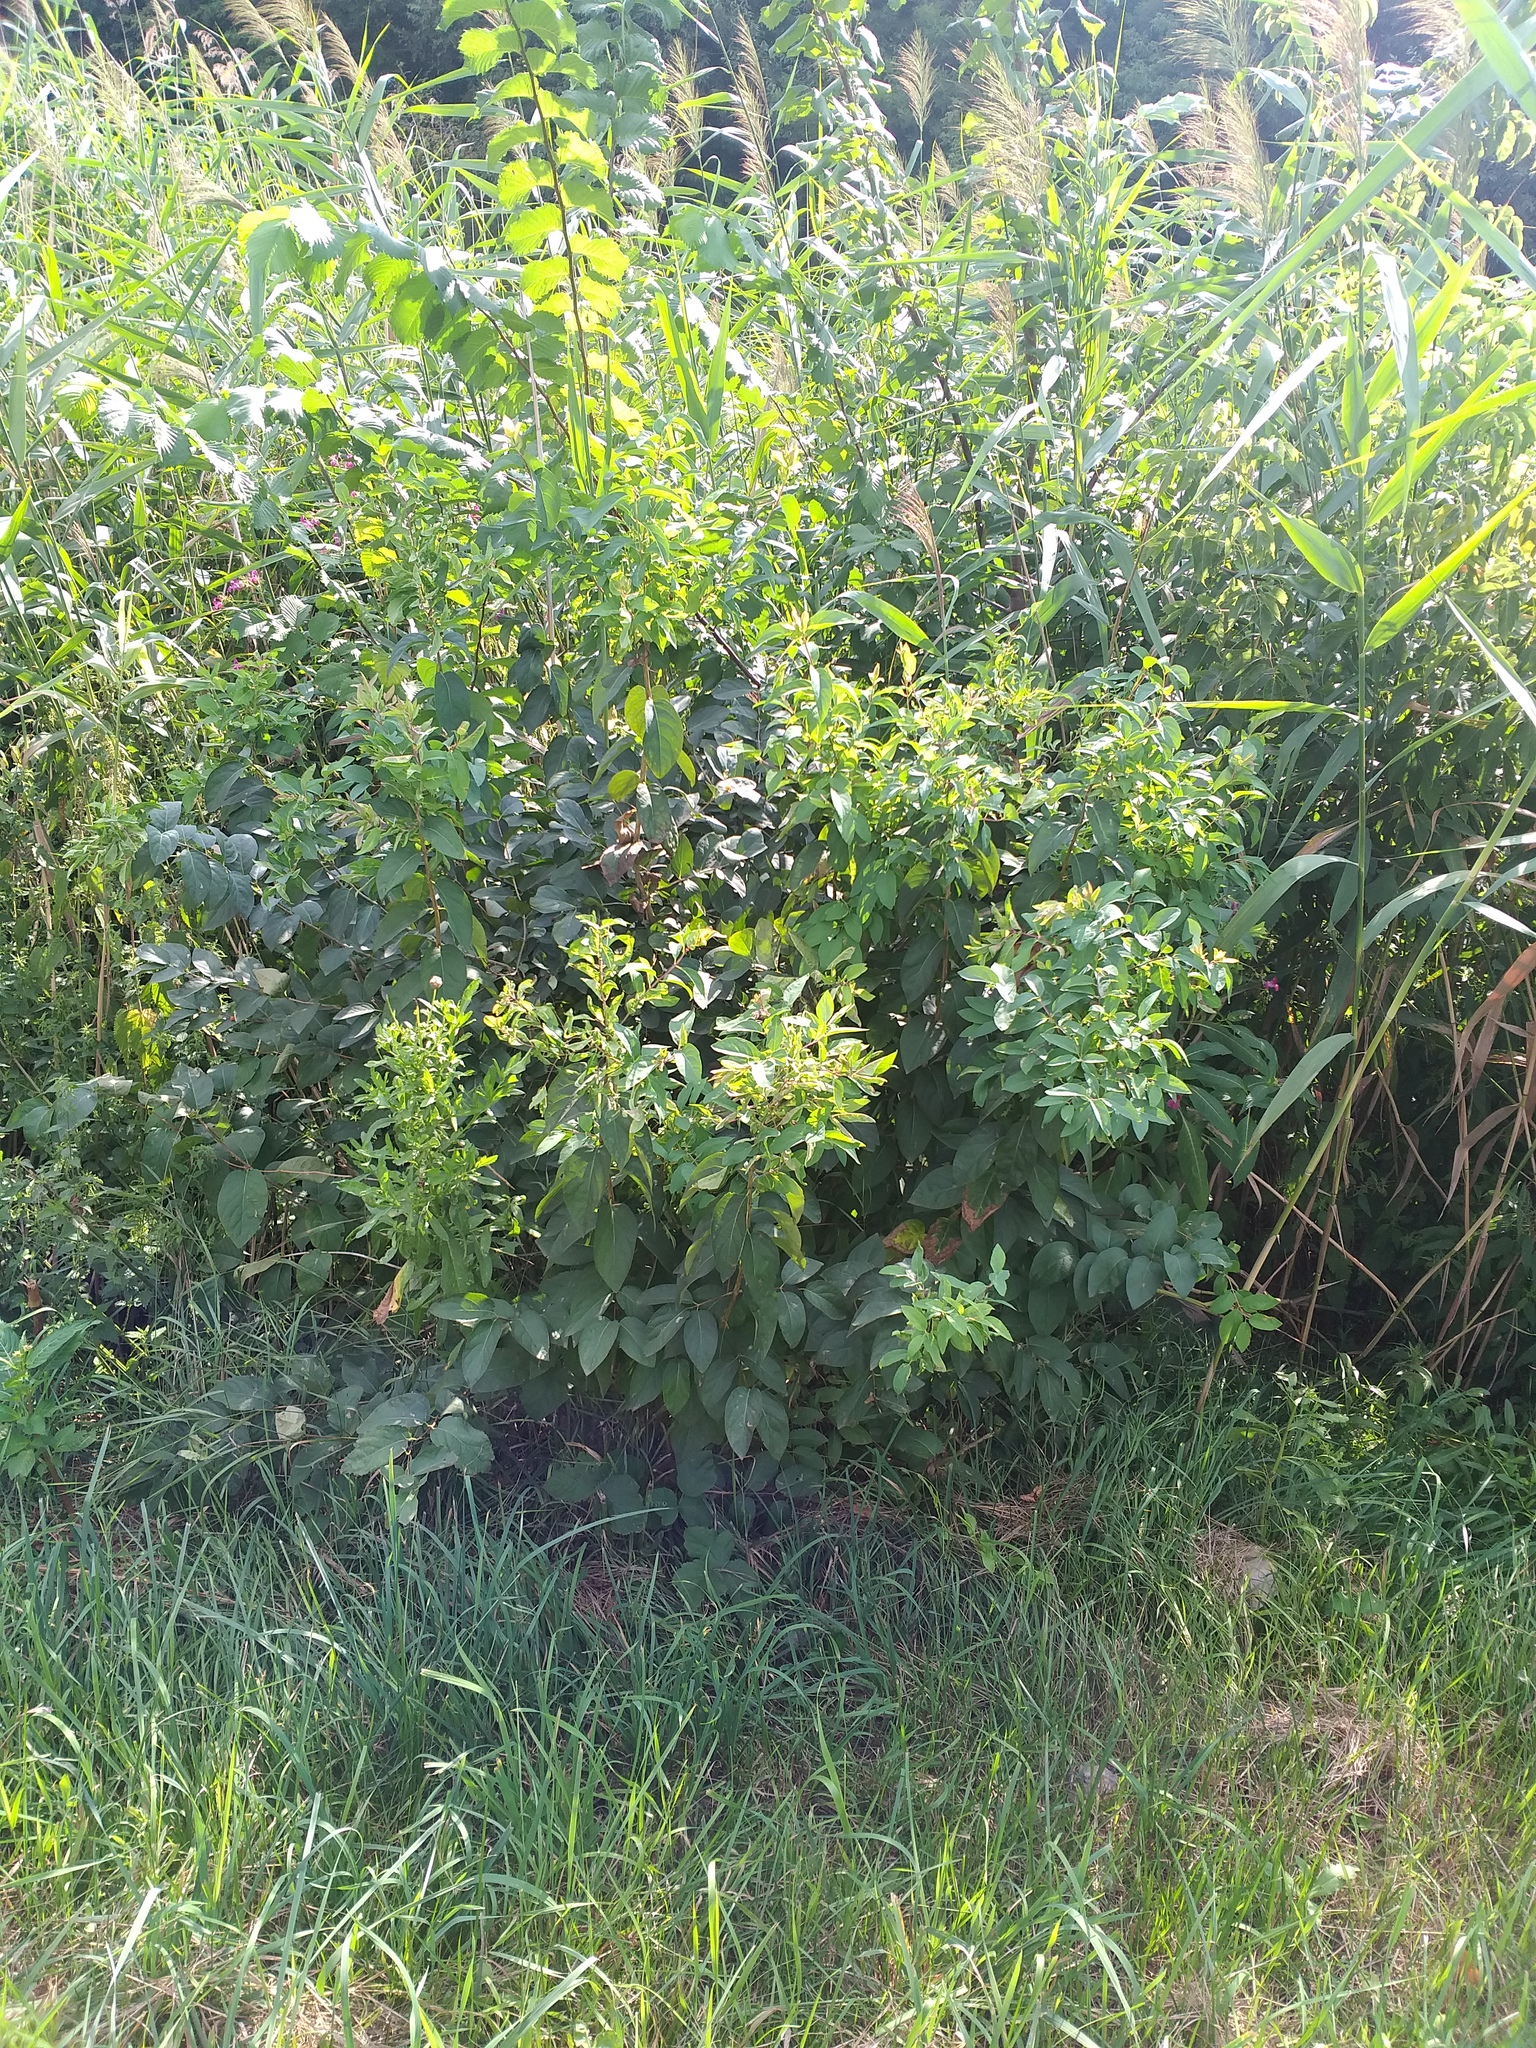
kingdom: Plantae
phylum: Tracheophyta
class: Magnoliopsida
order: Dipsacales
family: Caprifoliaceae
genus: Lonicera
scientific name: Lonicera tatarica
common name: Tatarian honeysuckle
